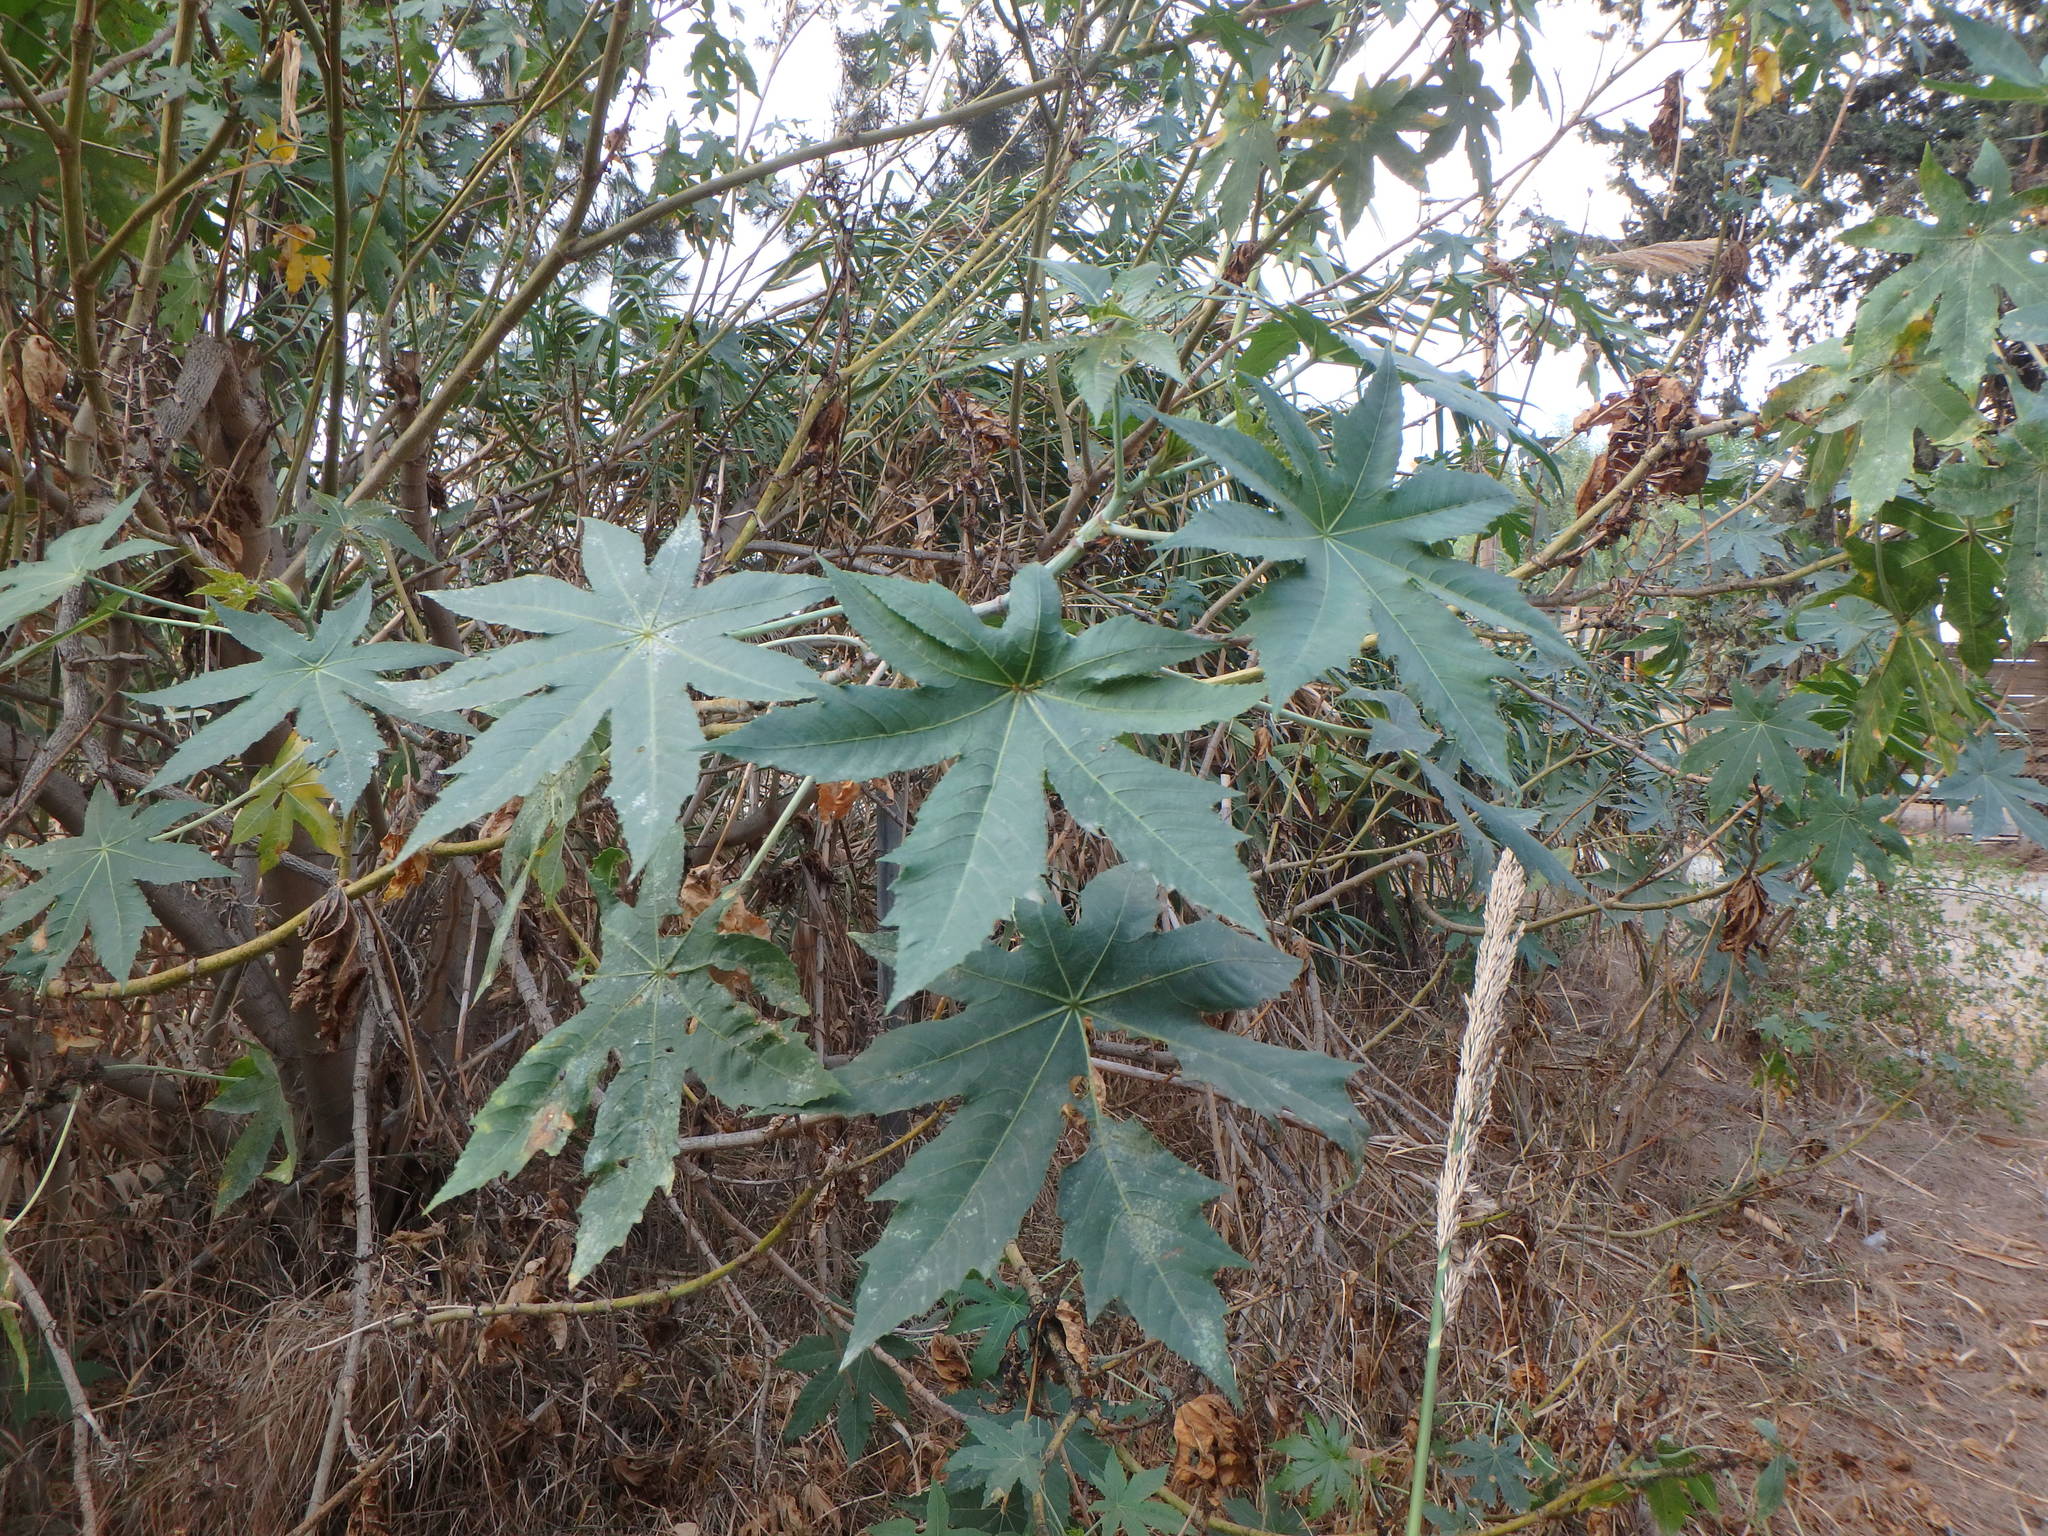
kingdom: Plantae
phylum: Tracheophyta
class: Magnoliopsida
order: Malpighiales
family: Euphorbiaceae
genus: Ricinus
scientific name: Ricinus communis
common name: Castor-oil-plant
